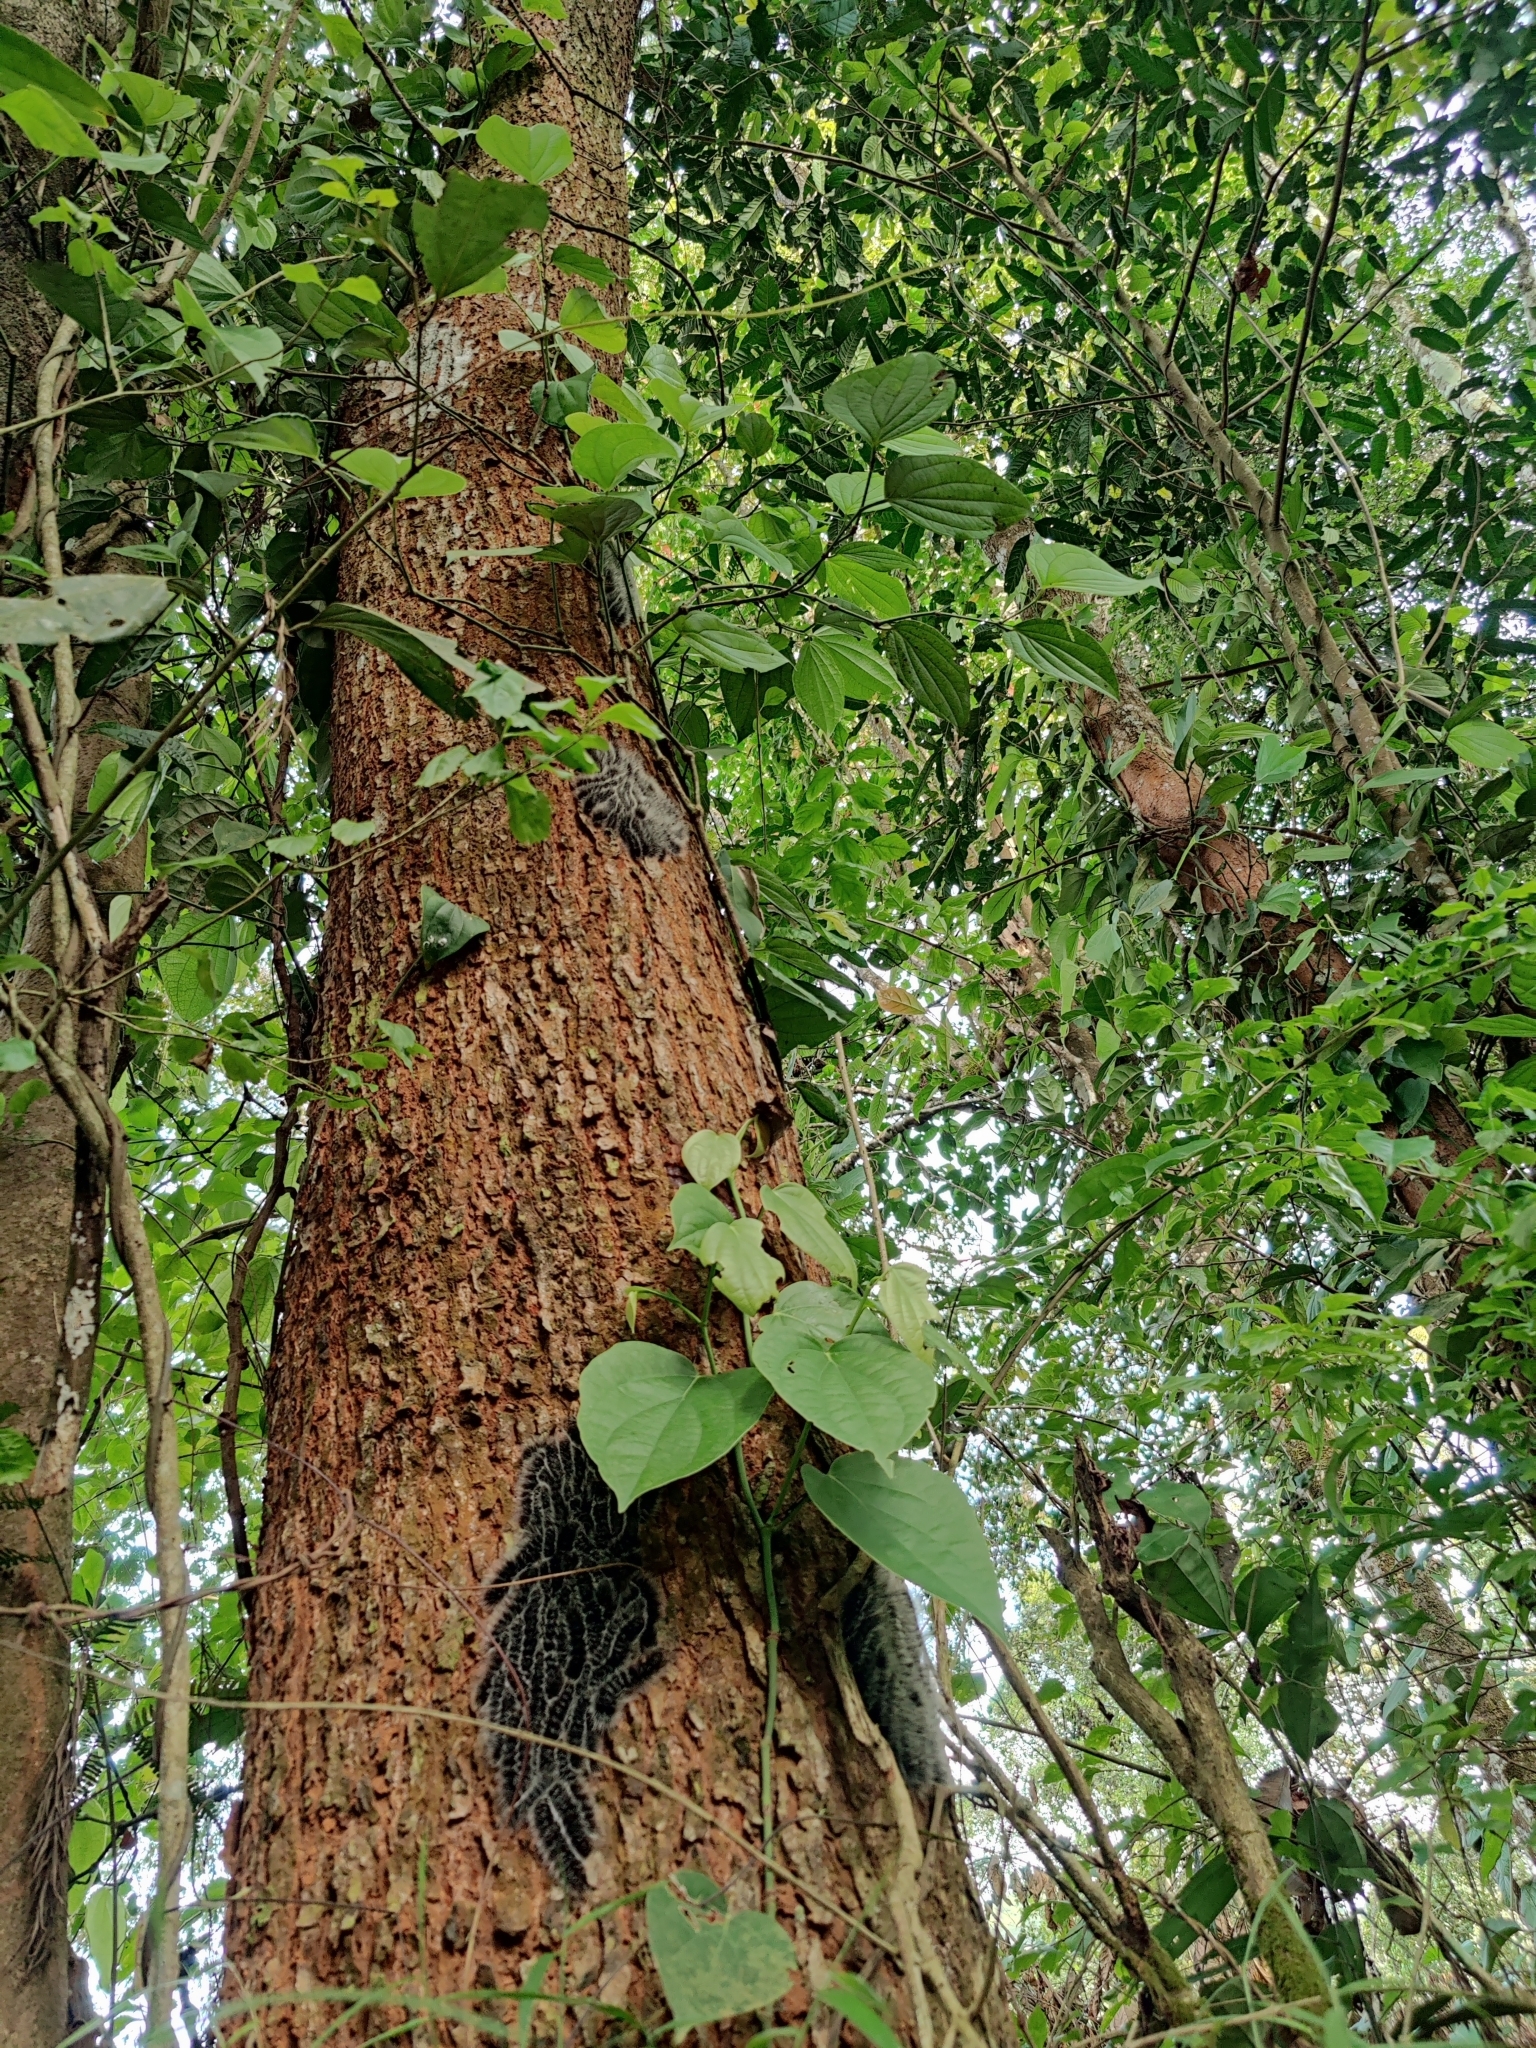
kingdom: Animalia
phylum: Arthropoda
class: Insecta
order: Lepidoptera
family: Erebidae
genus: Macrobrochis
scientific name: Macrobrochis gigas
